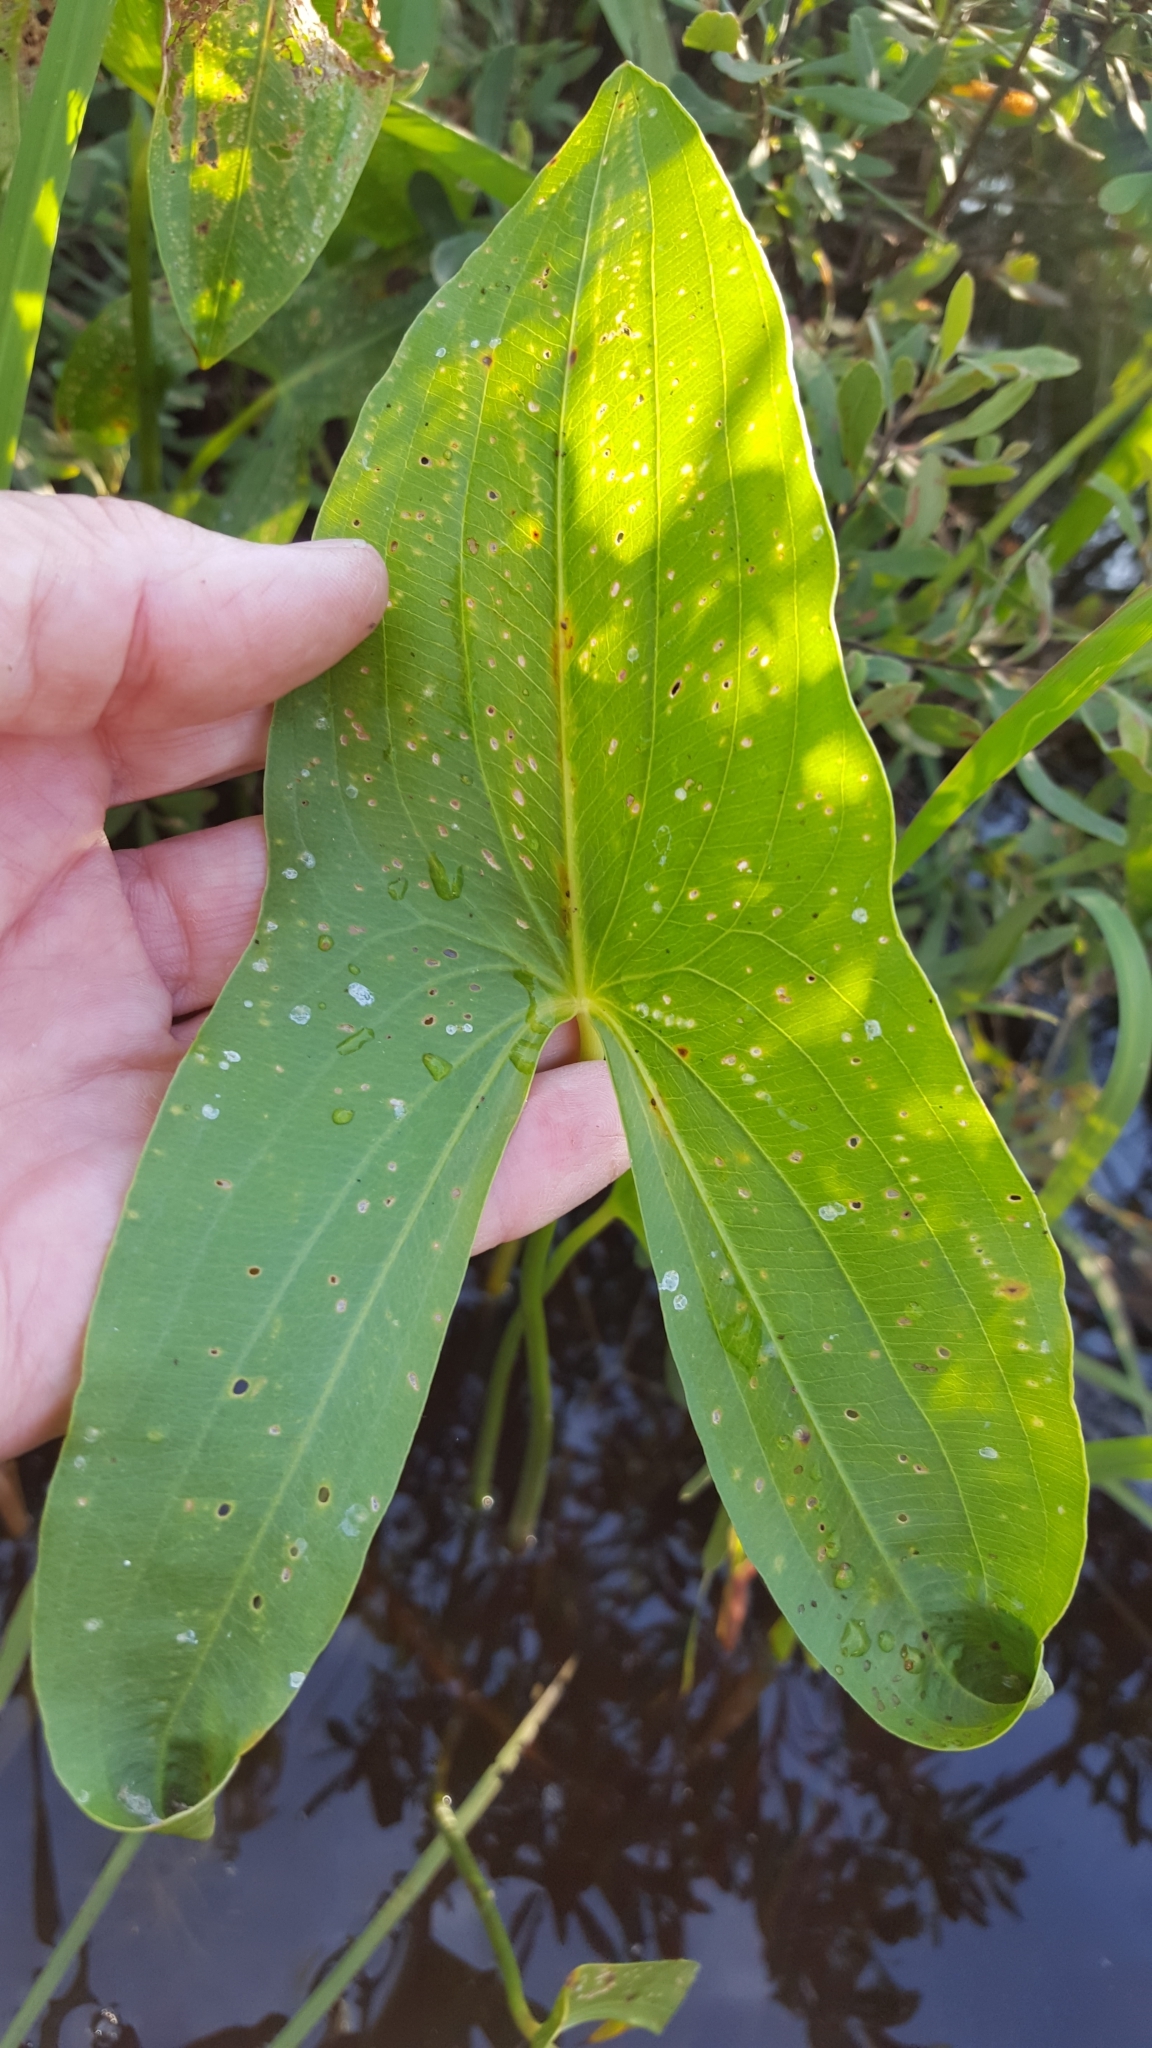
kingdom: Plantae
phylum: Tracheophyta
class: Liliopsida
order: Alismatales
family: Alismataceae
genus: Sagittaria
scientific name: Sagittaria latifolia
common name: Duck-potato
